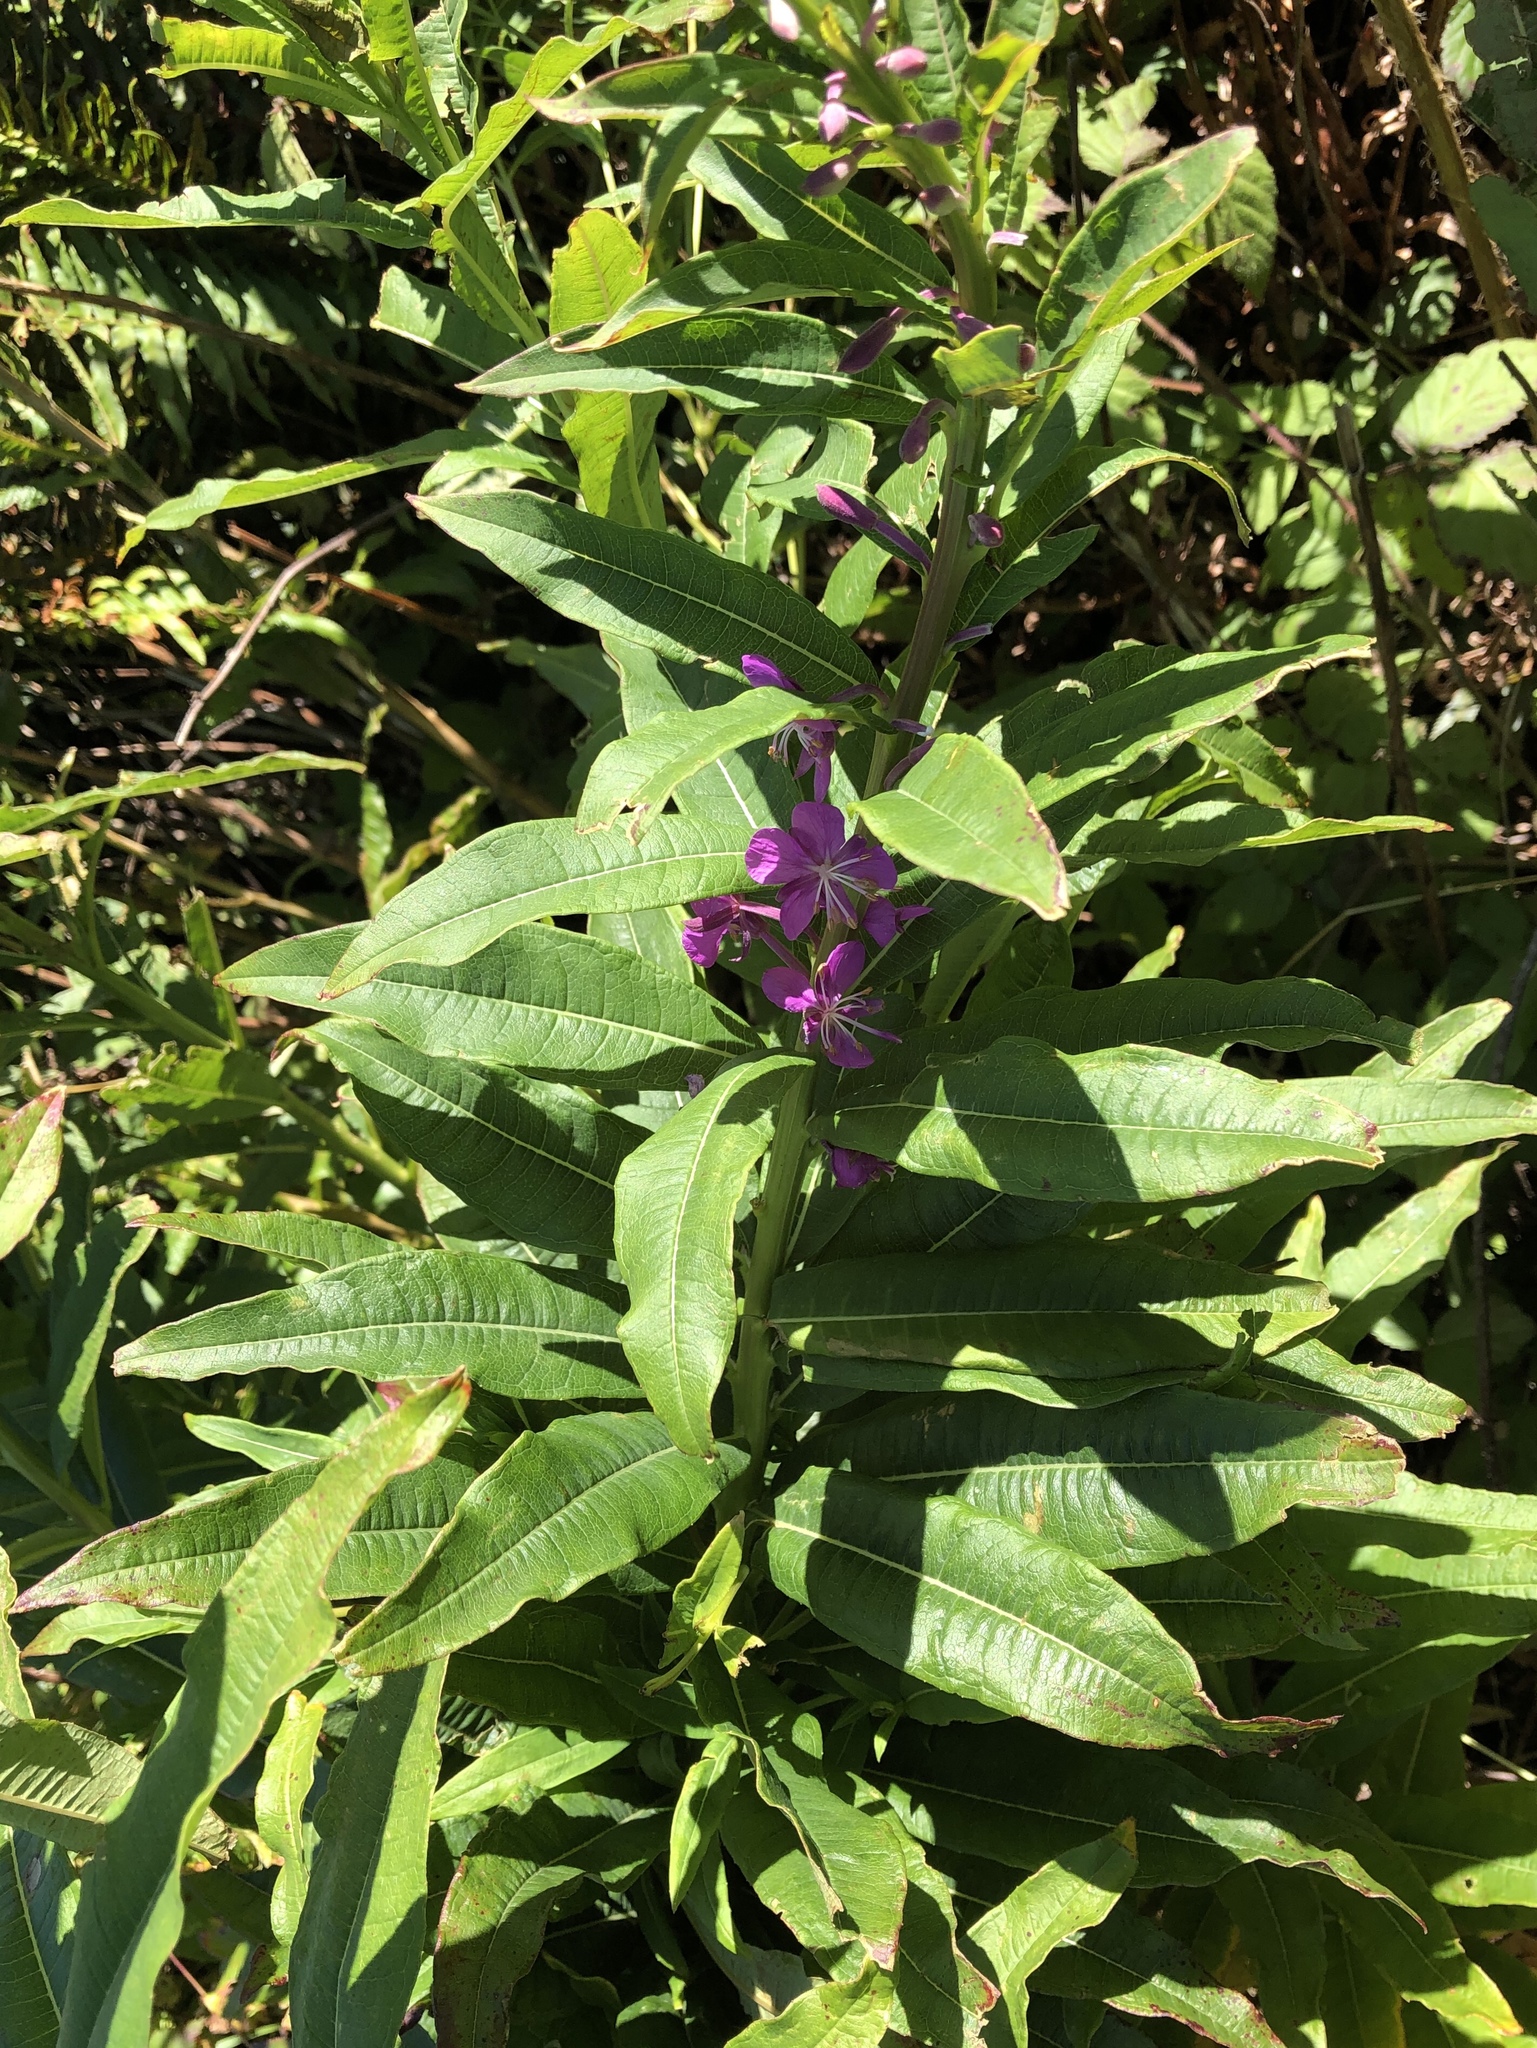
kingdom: Plantae
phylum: Tracheophyta
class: Magnoliopsida
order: Myrtales
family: Onagraceae
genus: Chamaenerion
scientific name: Chamaenerion angustifolium
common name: Fireweed
